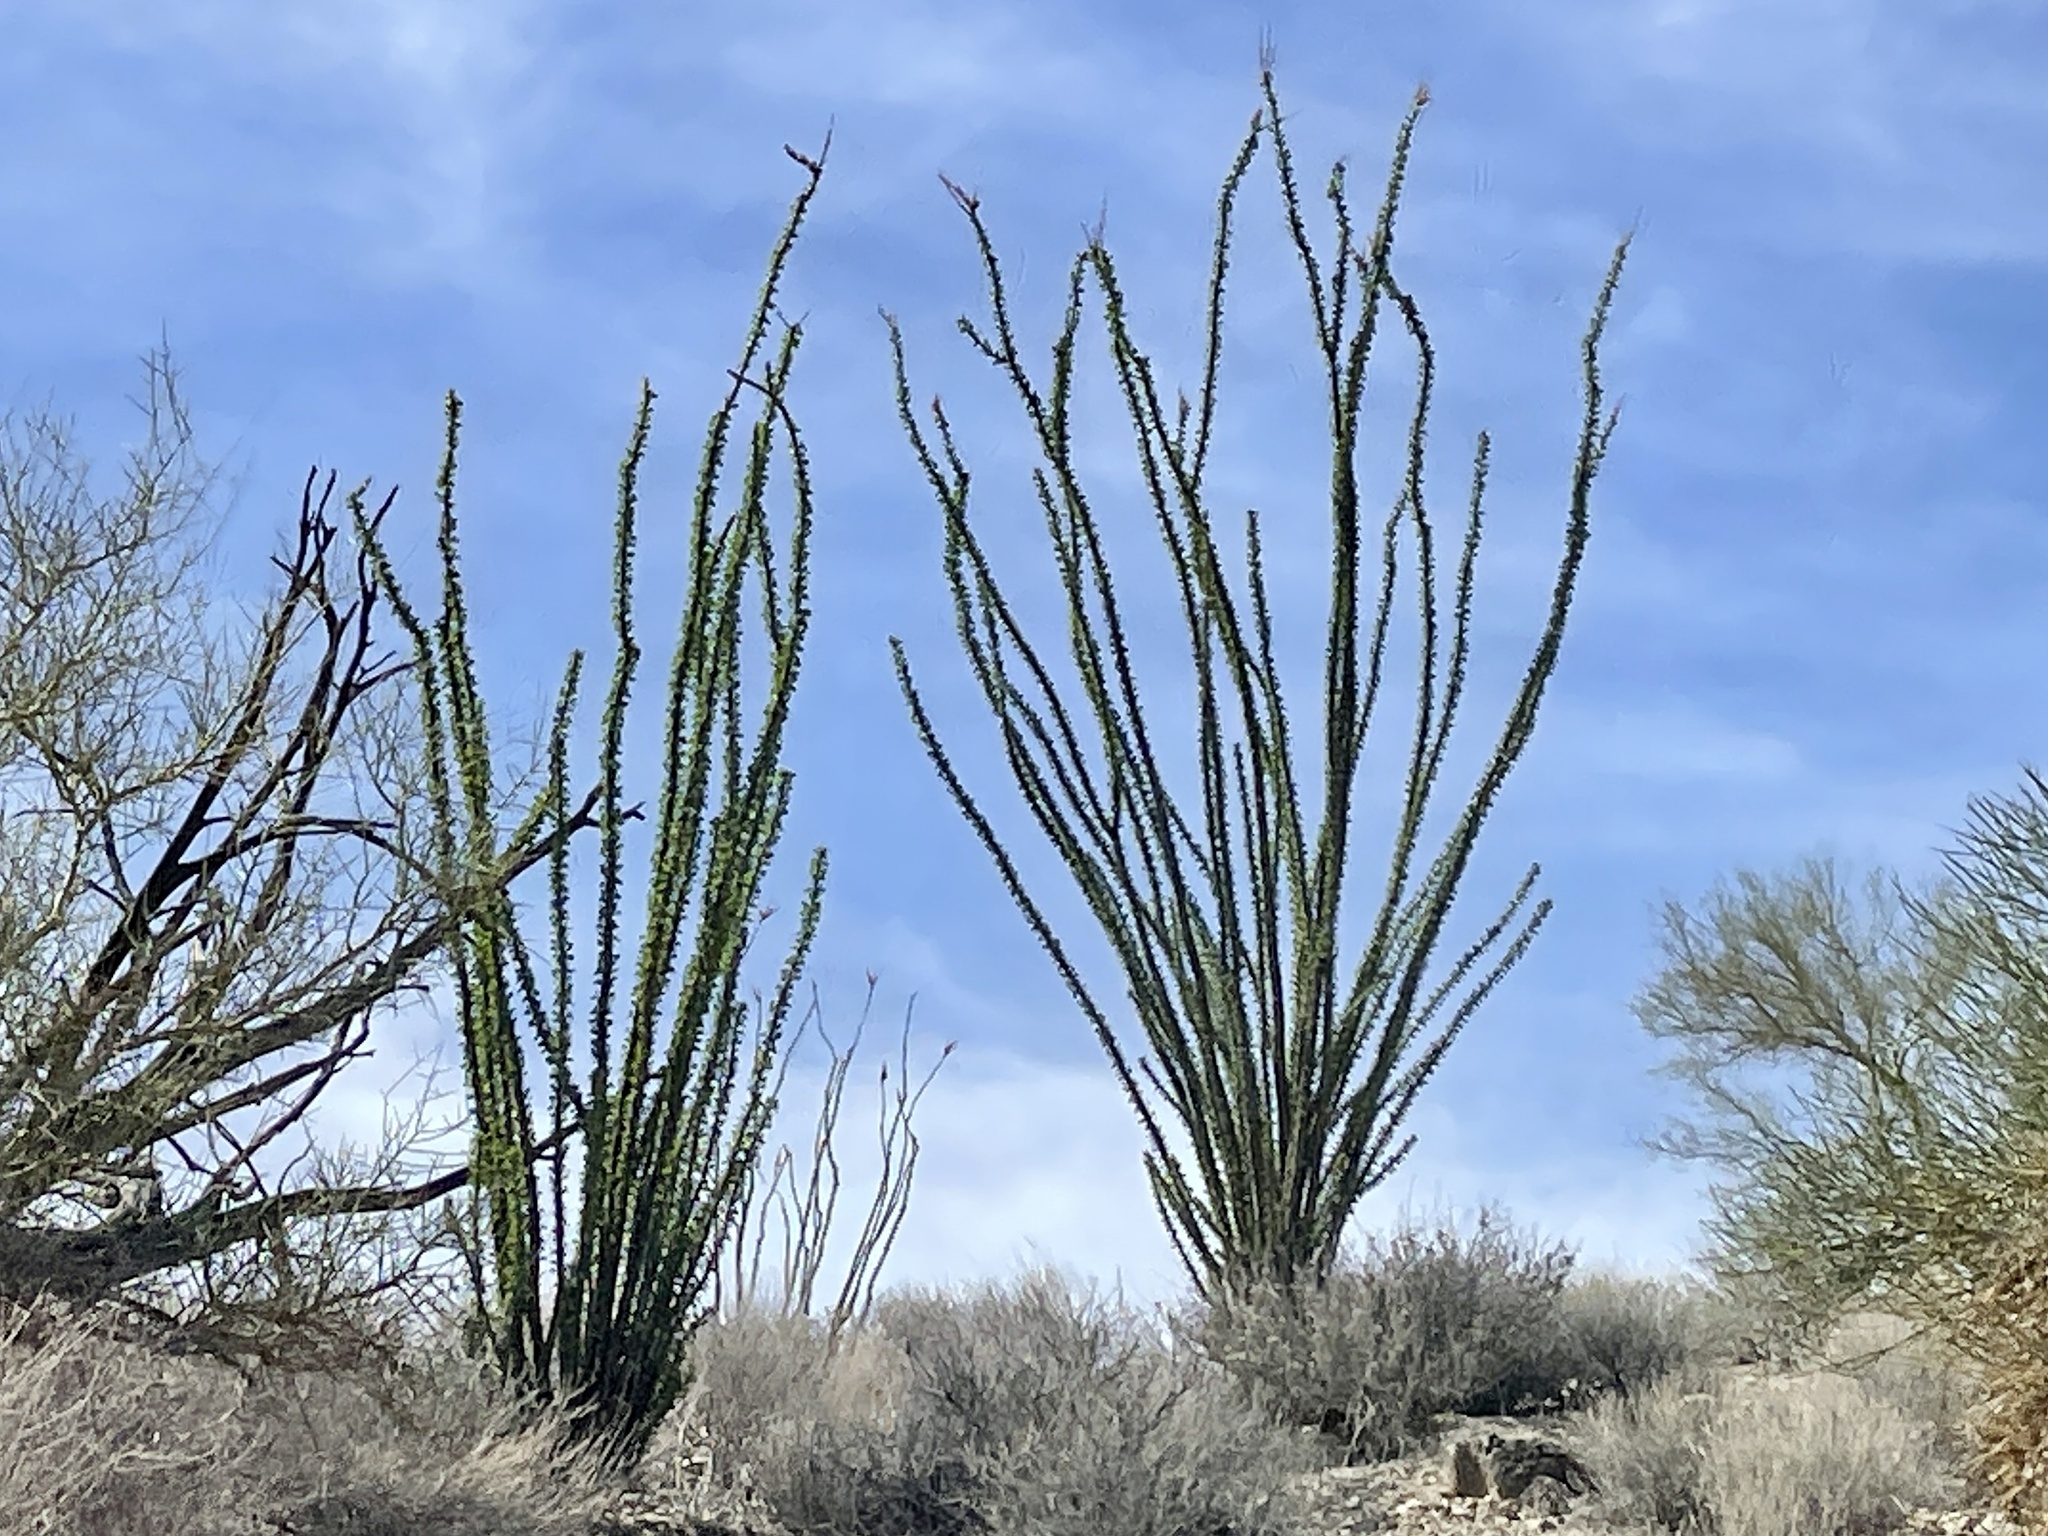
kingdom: Plantae
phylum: Tracheophyta
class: Magnoliopsida
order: Ericales
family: Fouquieriaceae
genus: Fouquieria
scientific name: Fouquieria splendens
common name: Vine-cactus
